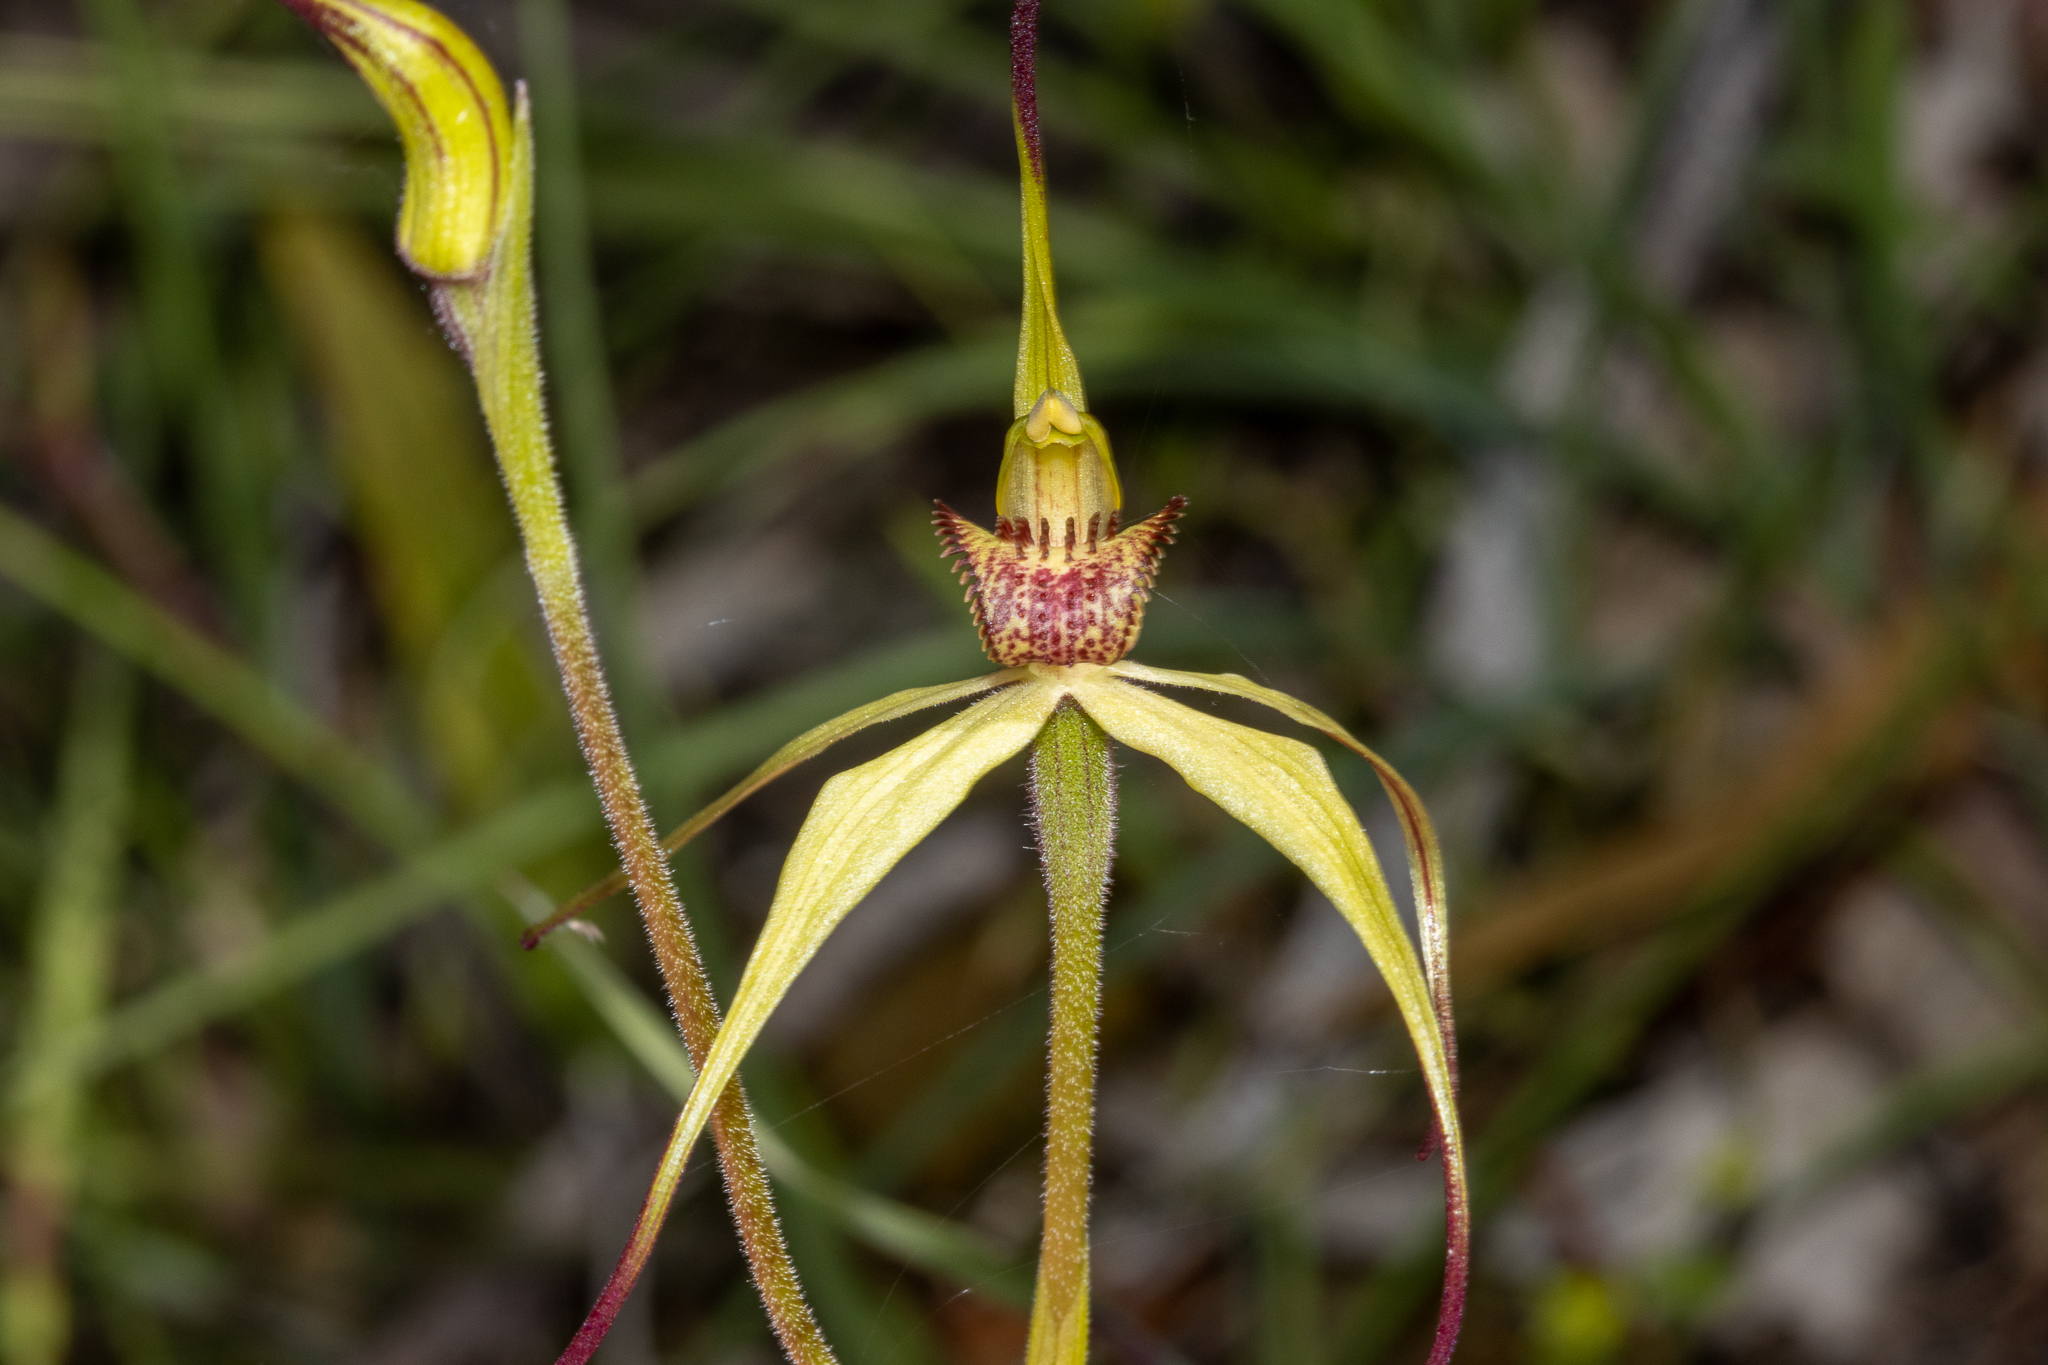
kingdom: Plantae
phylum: Tracheophyta
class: Liliopsida
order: Asparagales
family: Orchidaceae
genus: Caladenia
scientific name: Caladenia woolcockiorum
